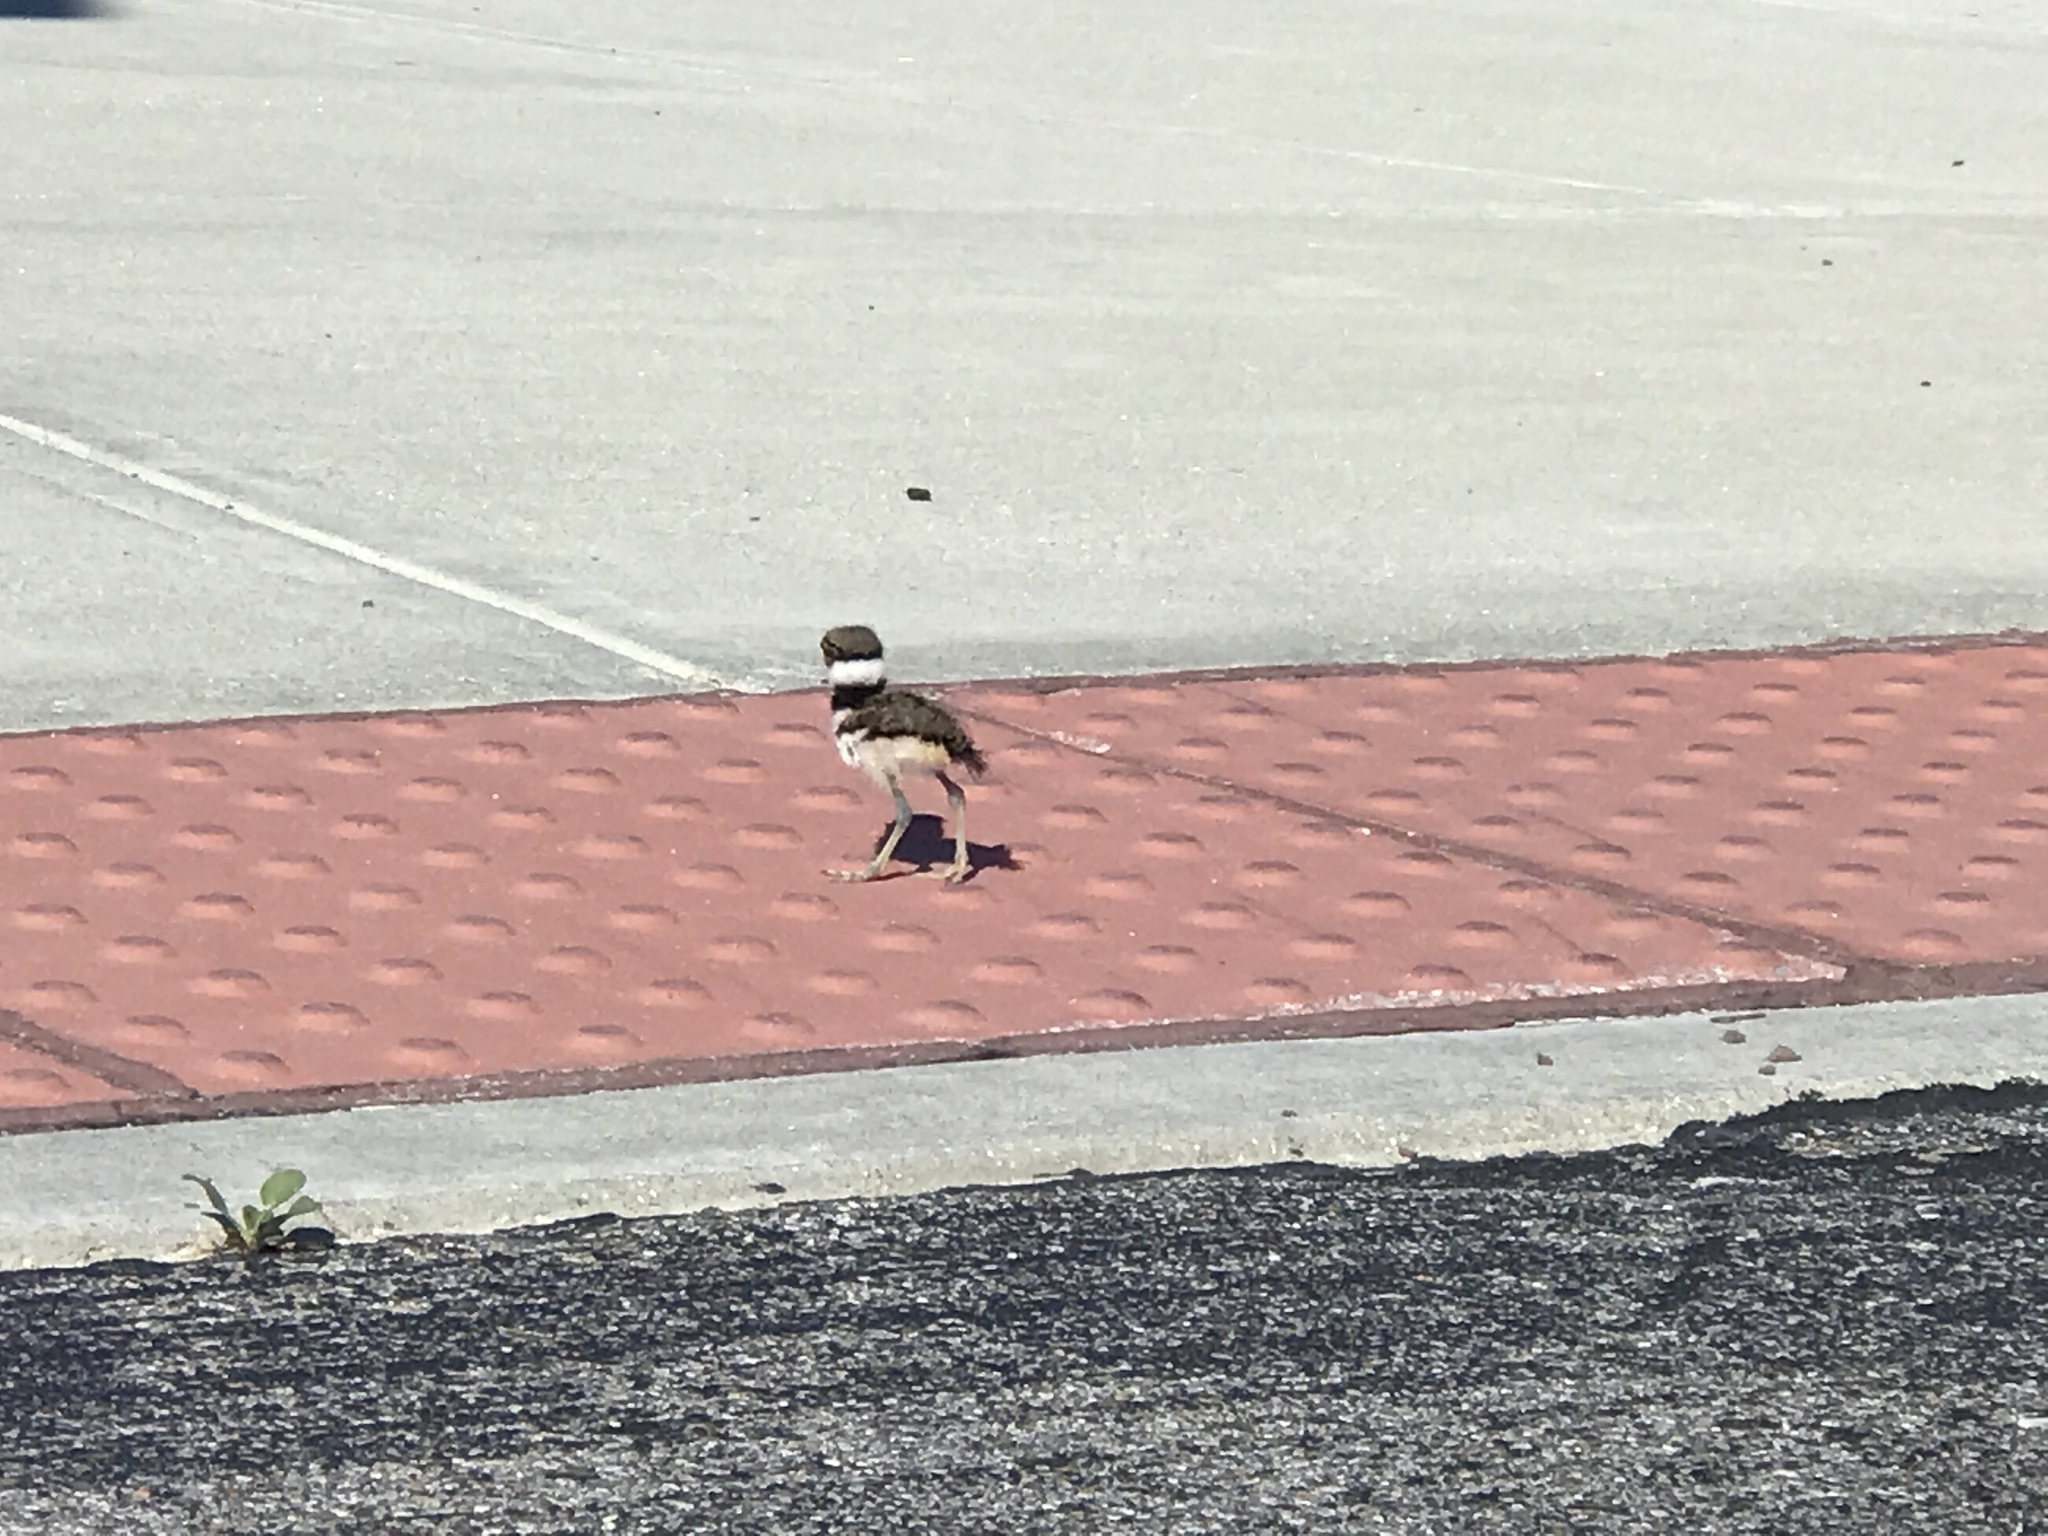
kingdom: Animalia
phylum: Chordata
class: Aves
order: Charadriiformes
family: Charadriidae
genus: Charadrius
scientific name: Charadrius vociferus
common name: Killdeer
